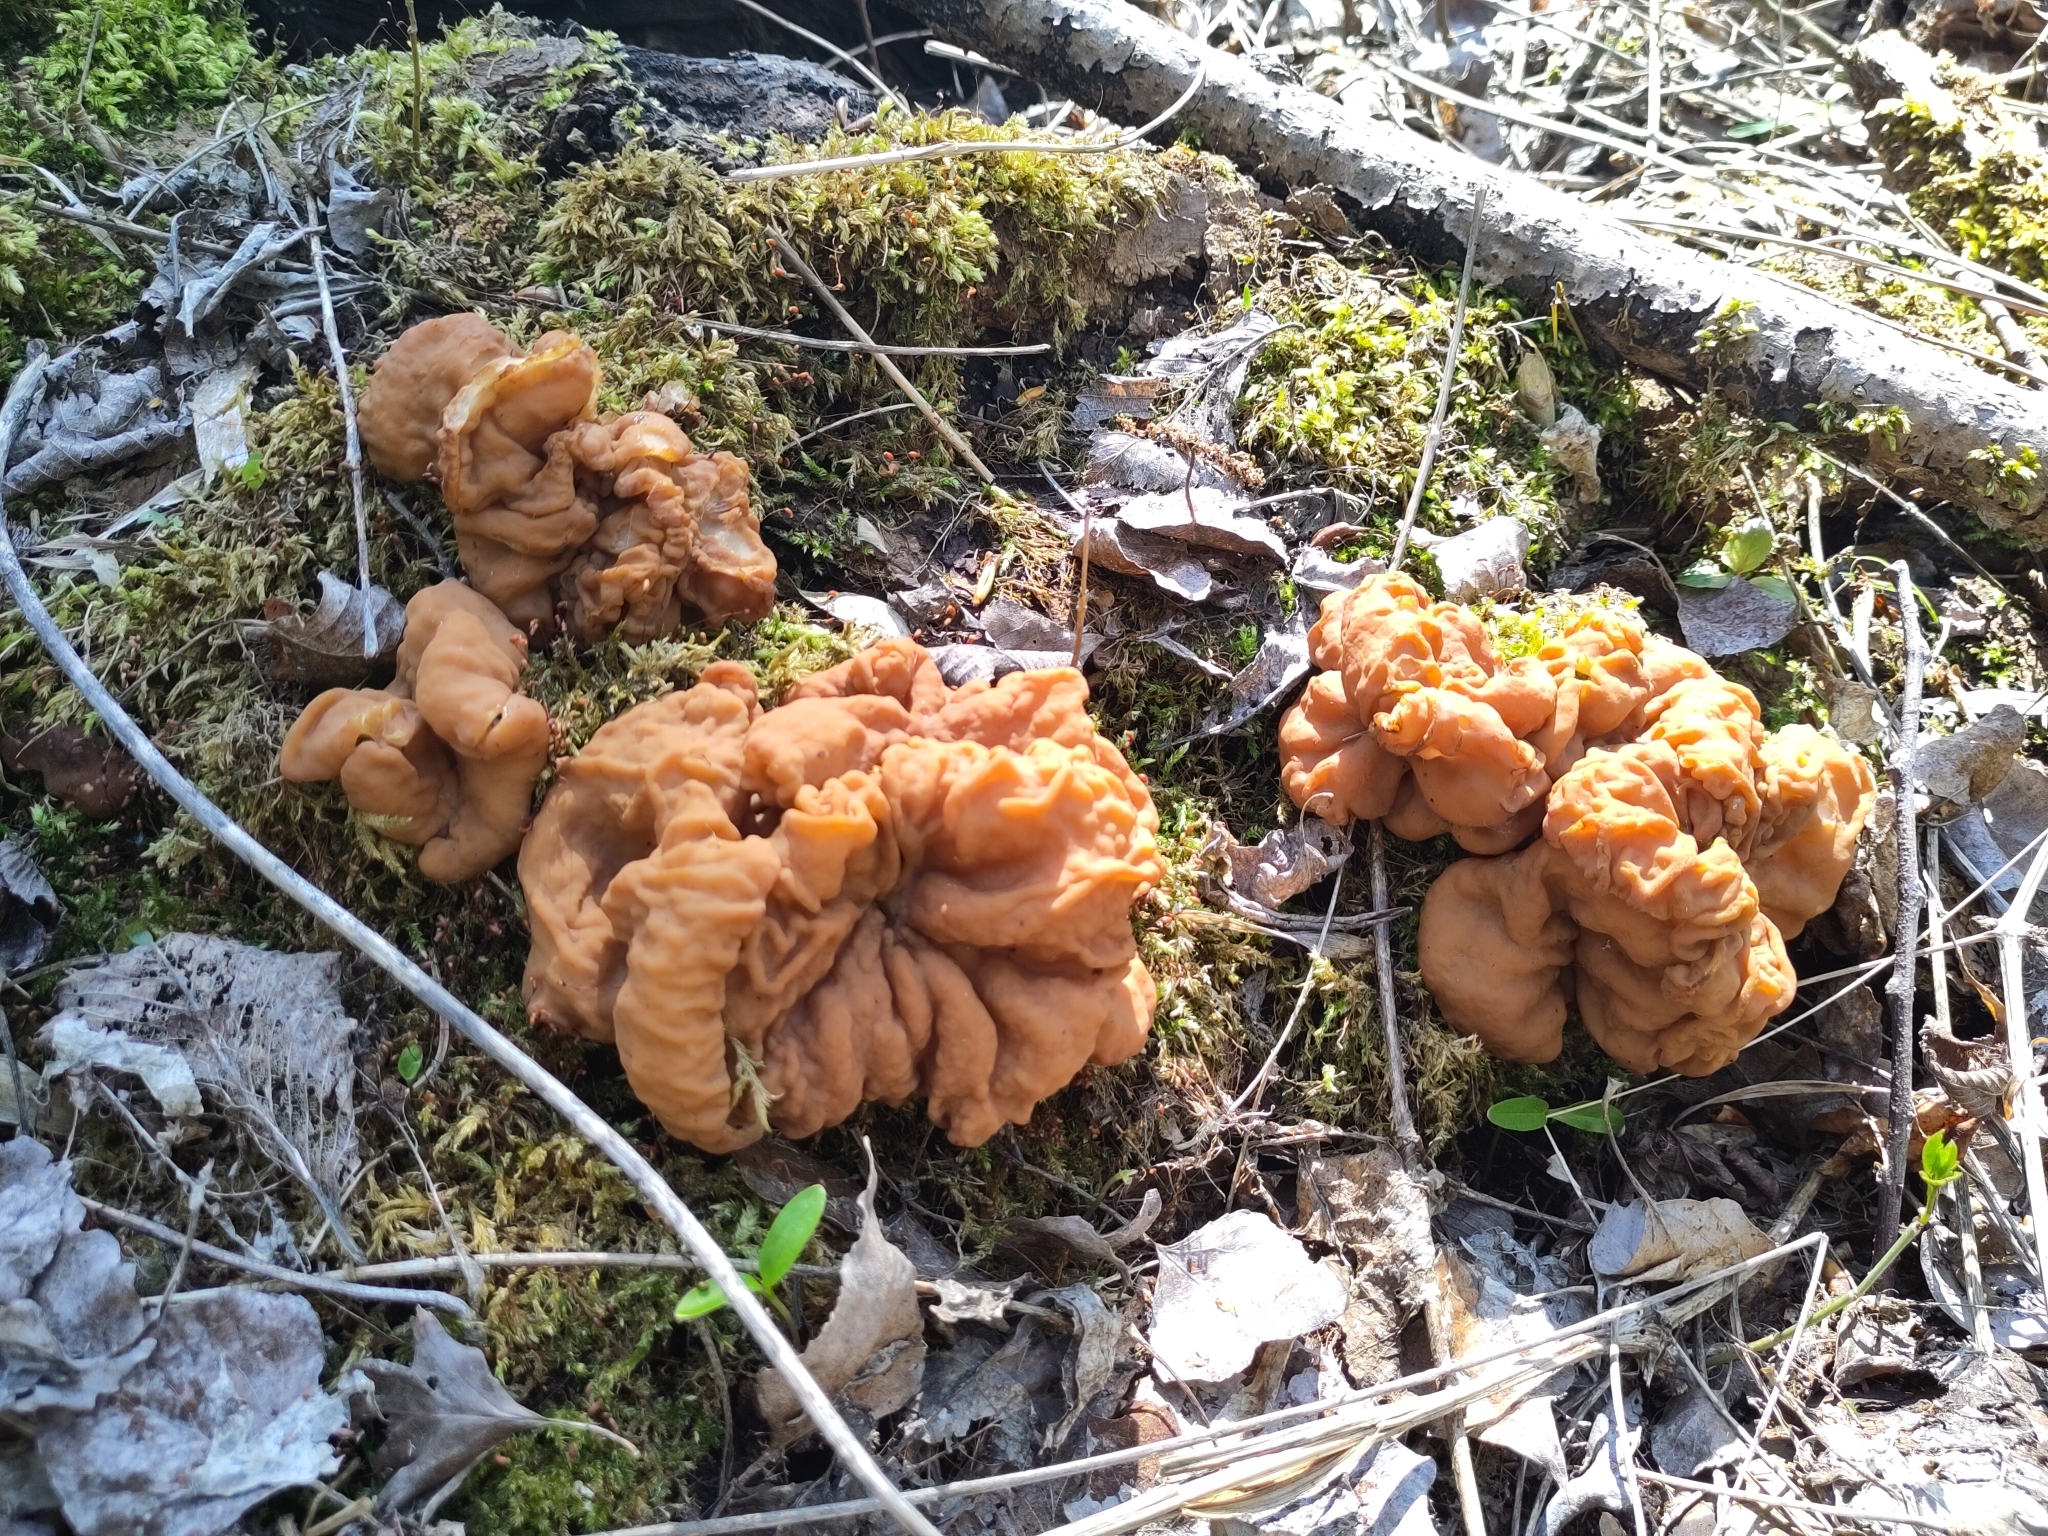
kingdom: Fungi
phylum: Ascomycota
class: Pezizomycetes
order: Pezizales
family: Discinaceae
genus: Gyromitra
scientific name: Gyromitra gigas
